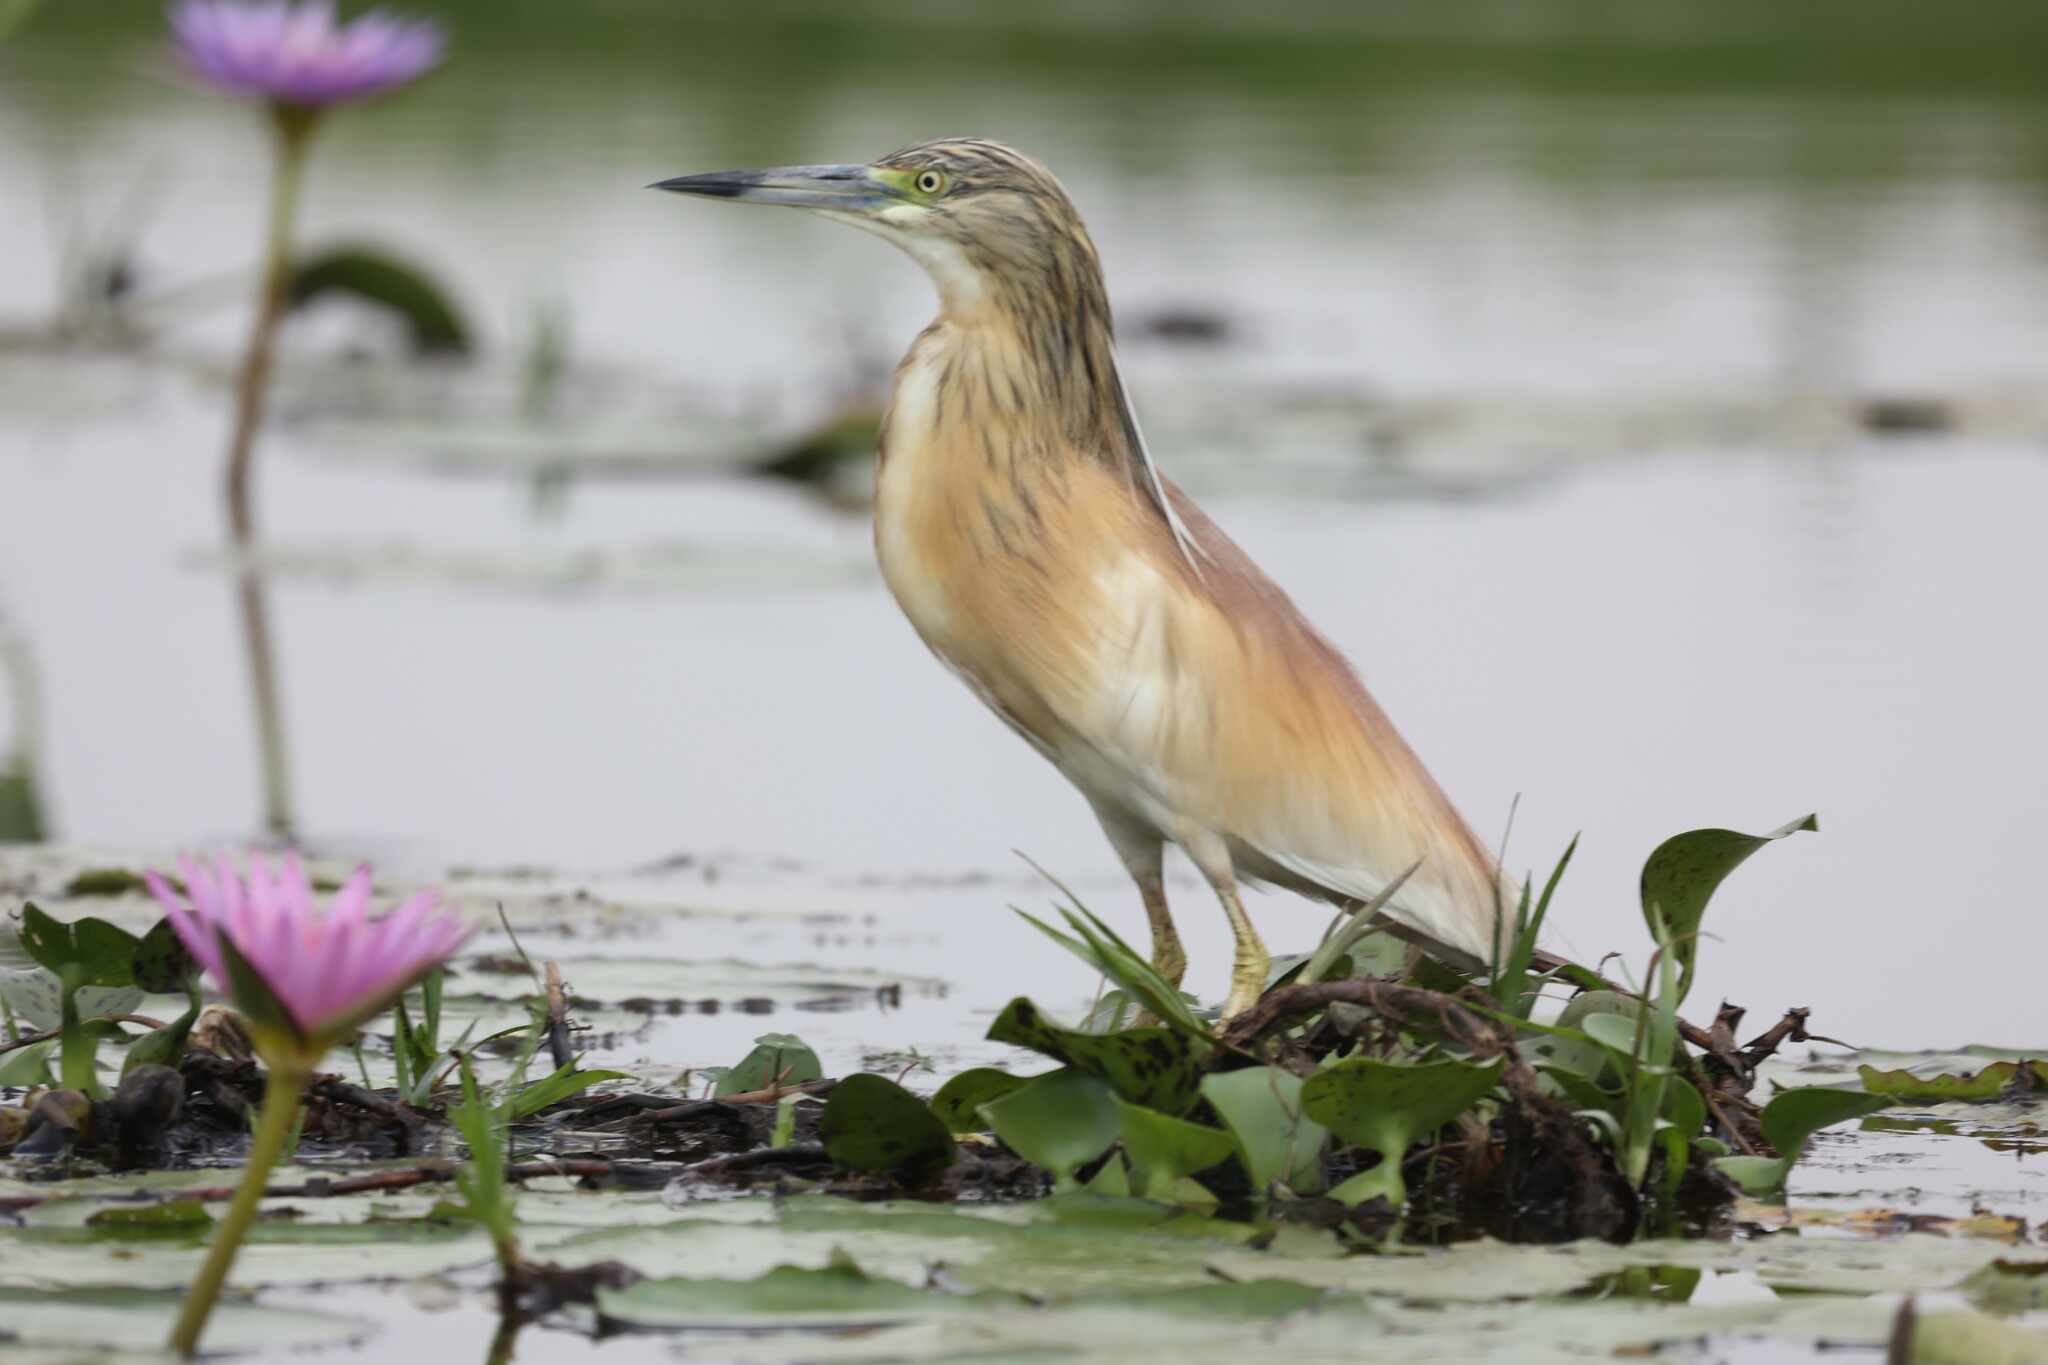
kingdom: Animalia
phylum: Chordata
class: Aves
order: Pelecaniformes
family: Ardeidae
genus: Ardeola
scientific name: Ardeola ralloides
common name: Squacco heron
